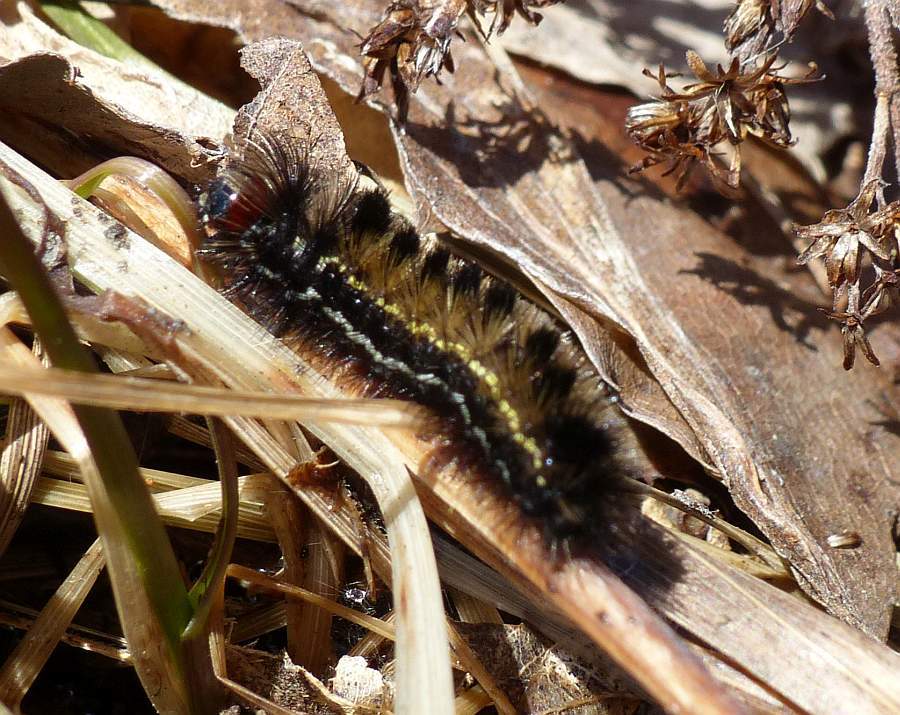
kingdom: Animalia
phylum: Arthropoda
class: Insecta
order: Lepidoptera
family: Erebidae
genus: Ctenucha
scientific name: Ctenucha virginica
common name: Virginia ctenucha moth
